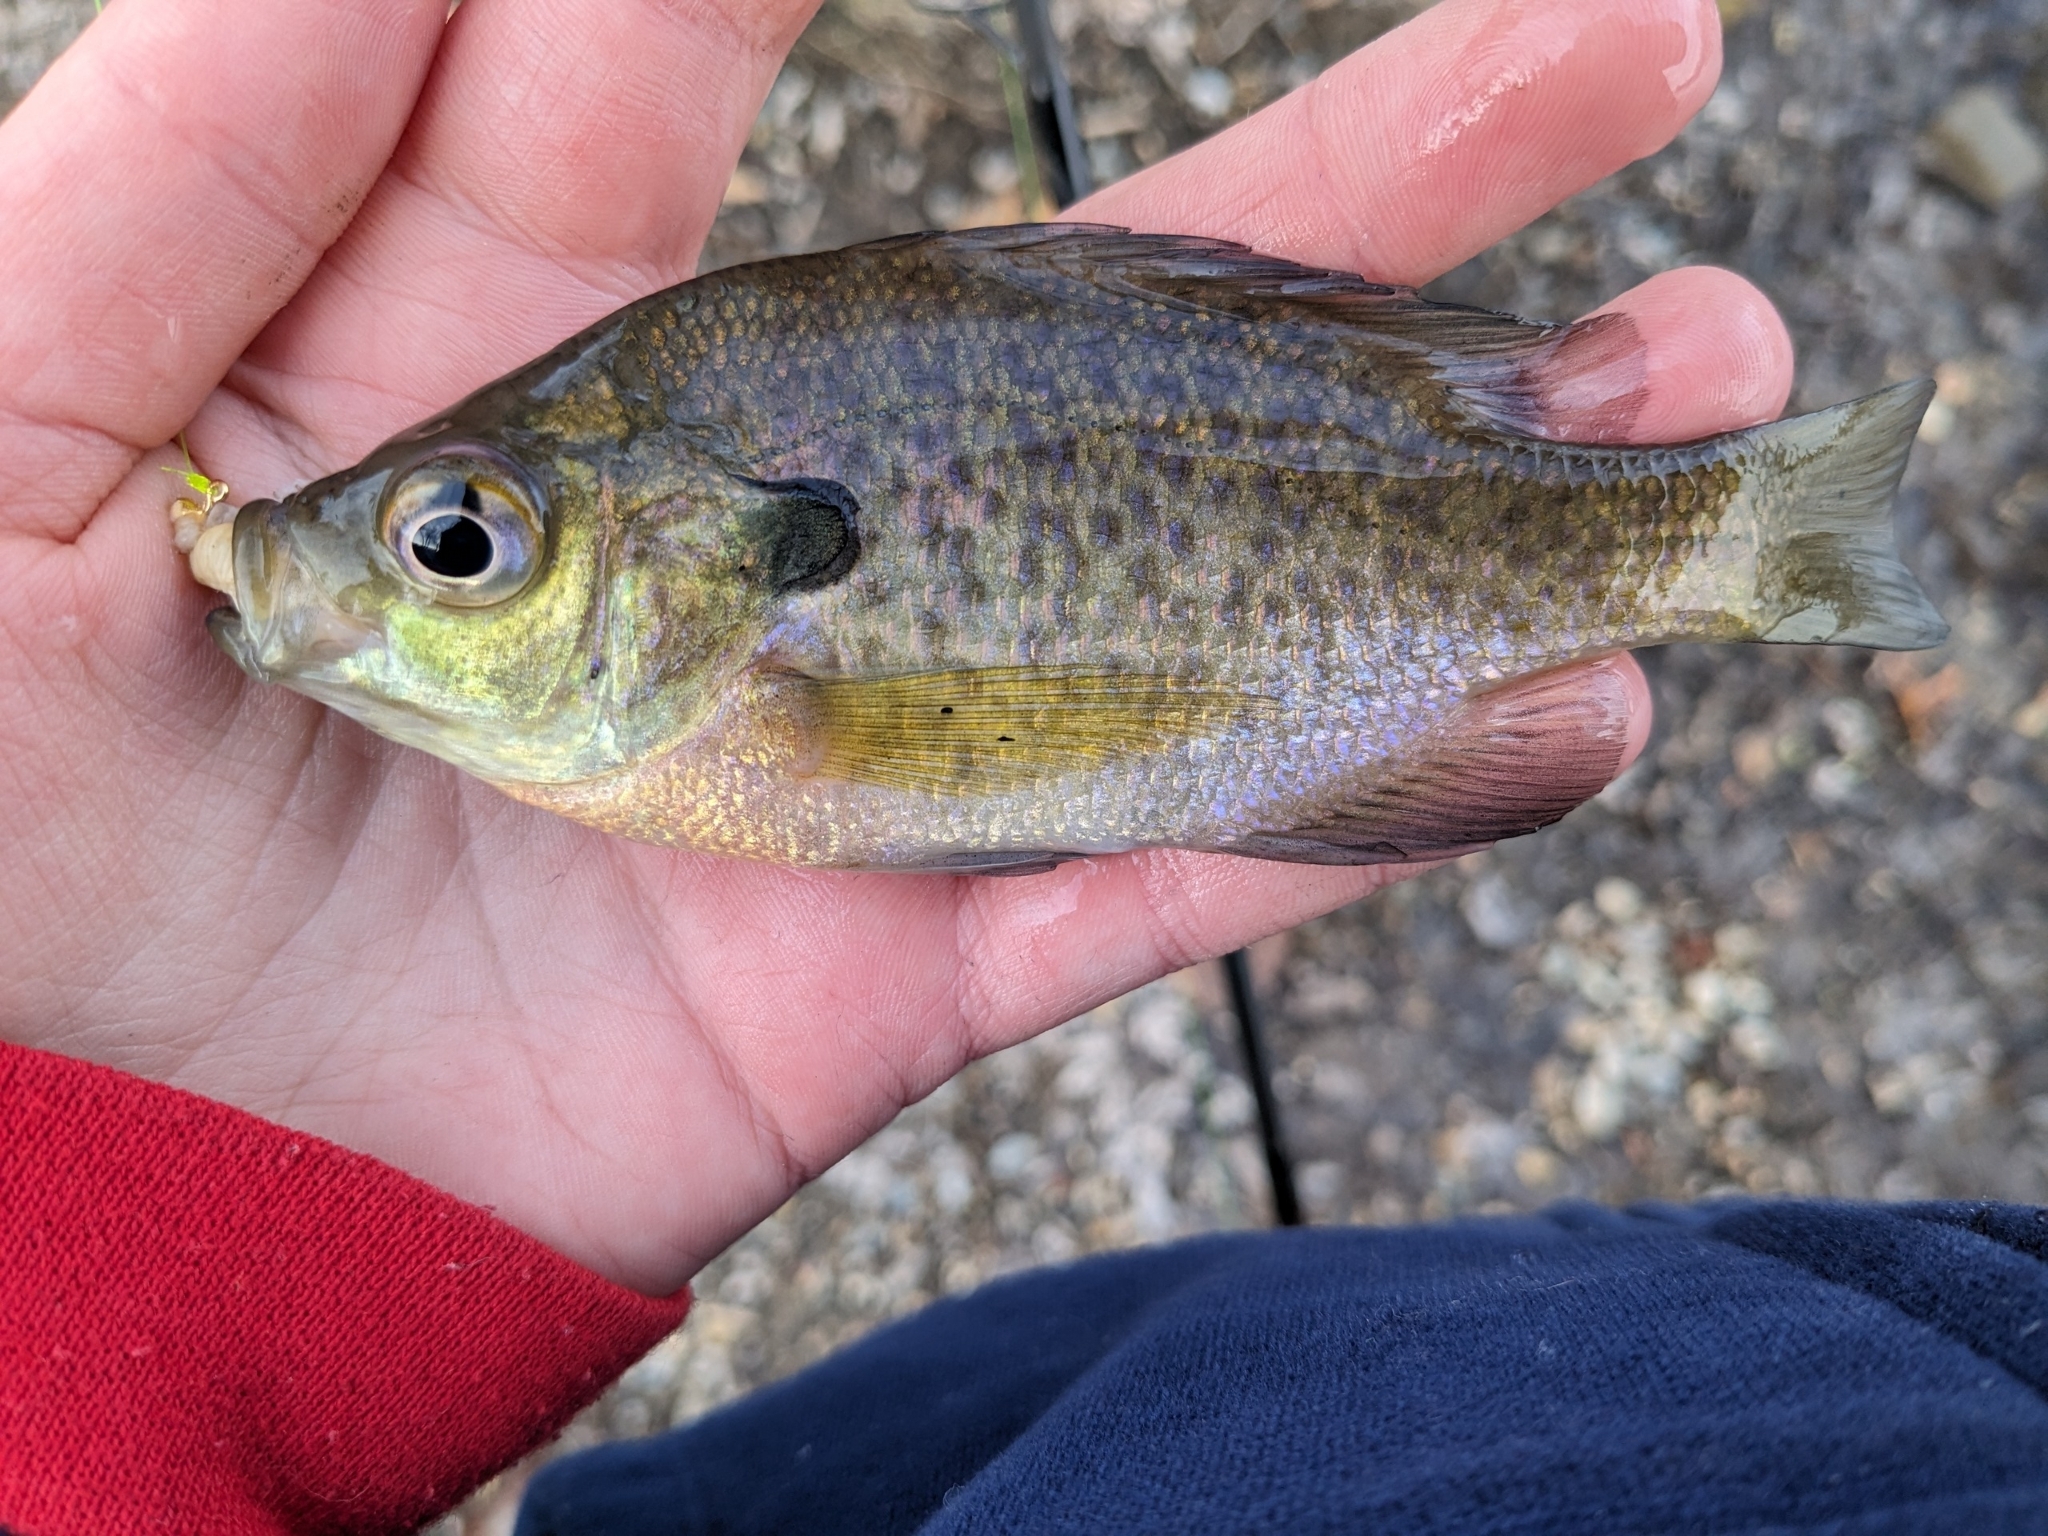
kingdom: Animalia
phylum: Chordata
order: Perciformes
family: Centrarchidae
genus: Lepomis
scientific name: Lepomis macrochirus
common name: Bluegill
